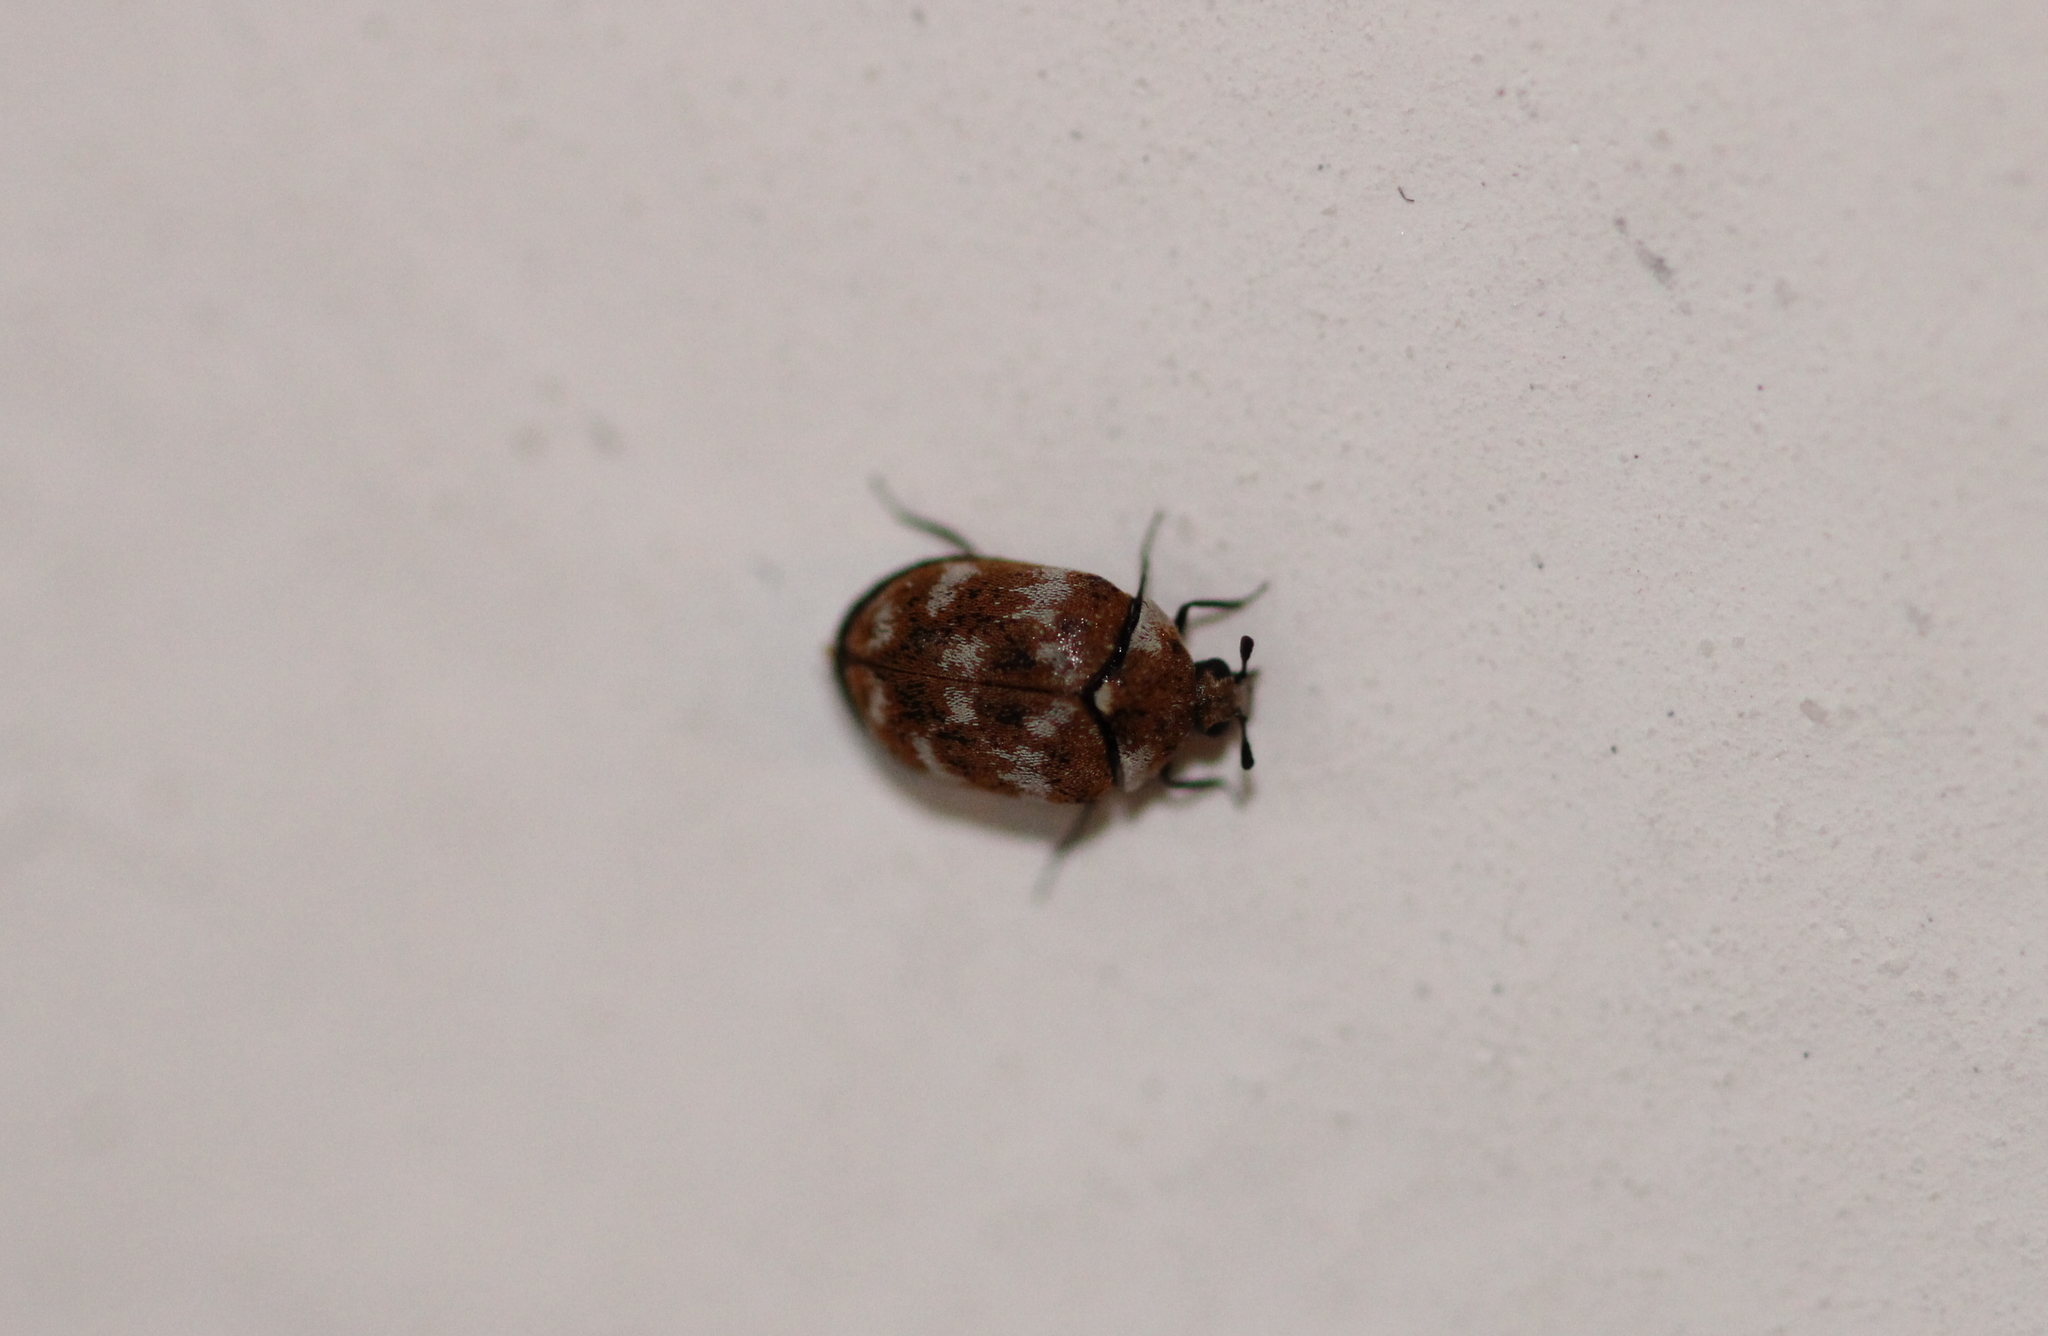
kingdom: Animalia
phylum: Arthropoda
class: Insecta
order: Coleoptera
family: Dermestidae
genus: Anthrenus
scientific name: Anthrenus verbasci
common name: Varied carpet beetle
